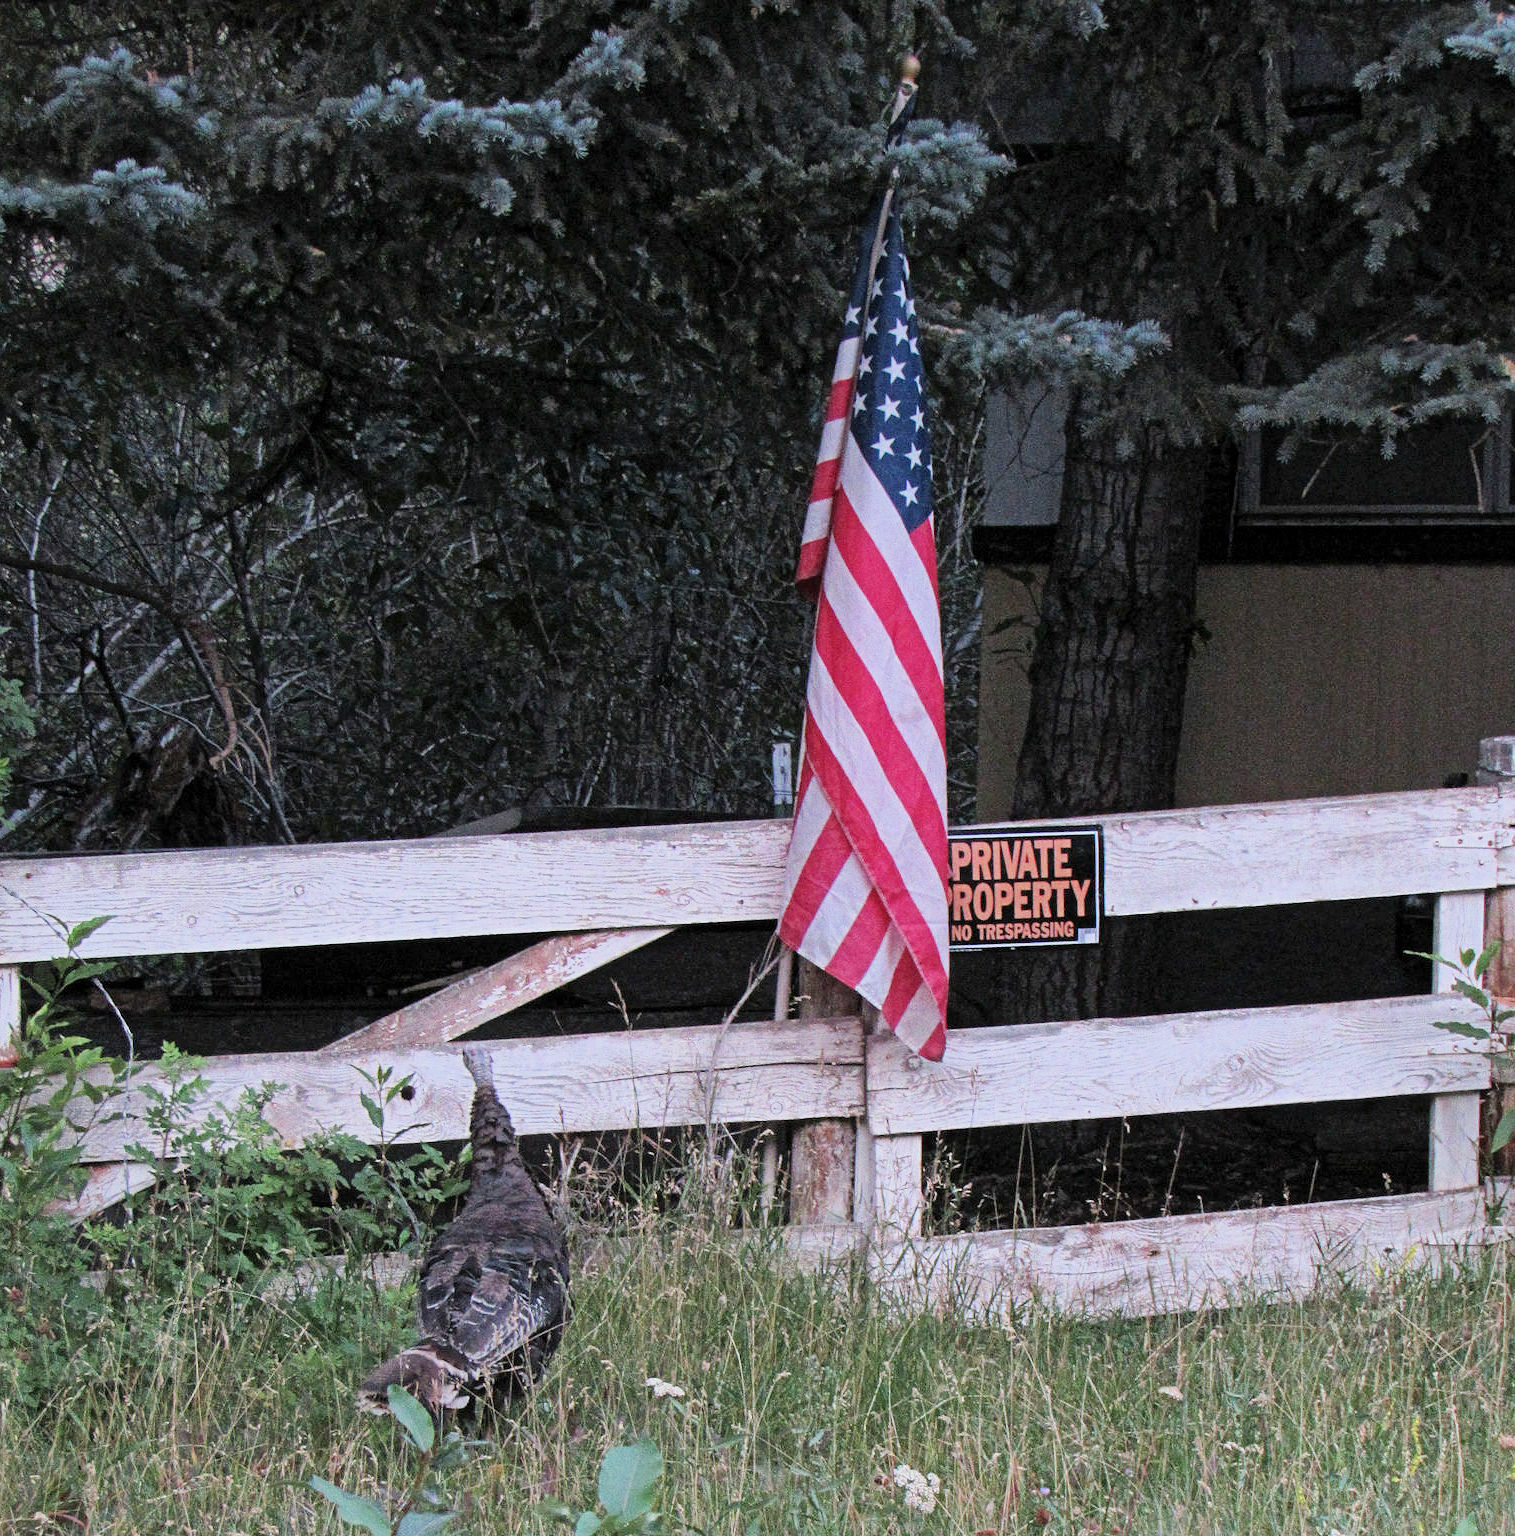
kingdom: Animalia
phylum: Chordata
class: Aves
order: Galliformes
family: Phasianidae
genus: Meleagris
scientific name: Meleagris gallopavo
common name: Wild turkey
